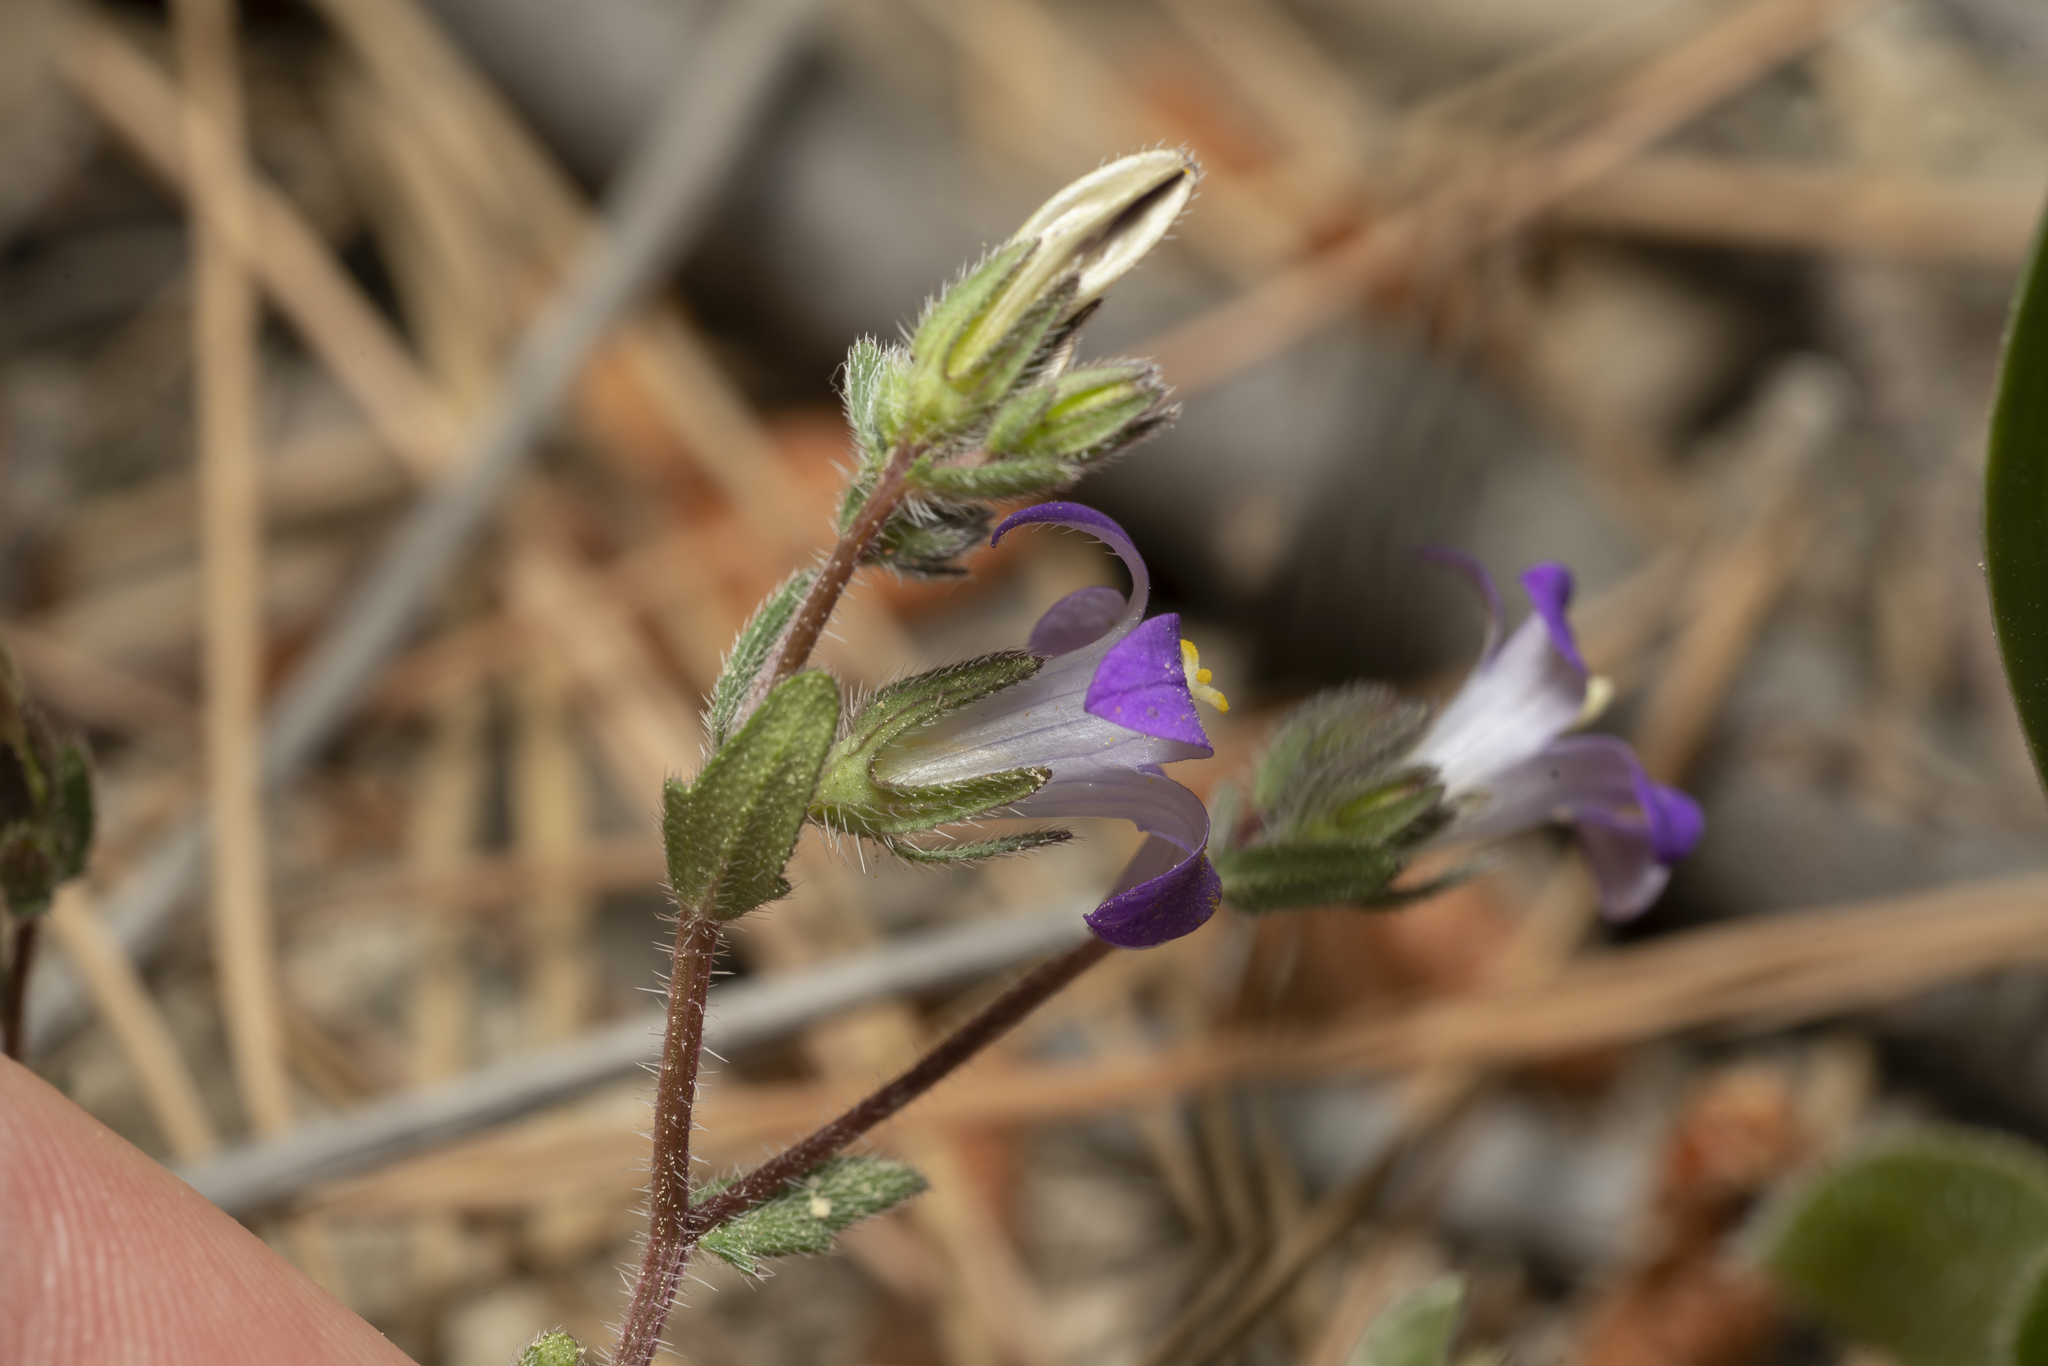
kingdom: Plantae
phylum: Tracheophyta
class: Magnoliopsida
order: Asterales
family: Campanulaceae
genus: Campanula
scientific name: Campanula rhodensis
